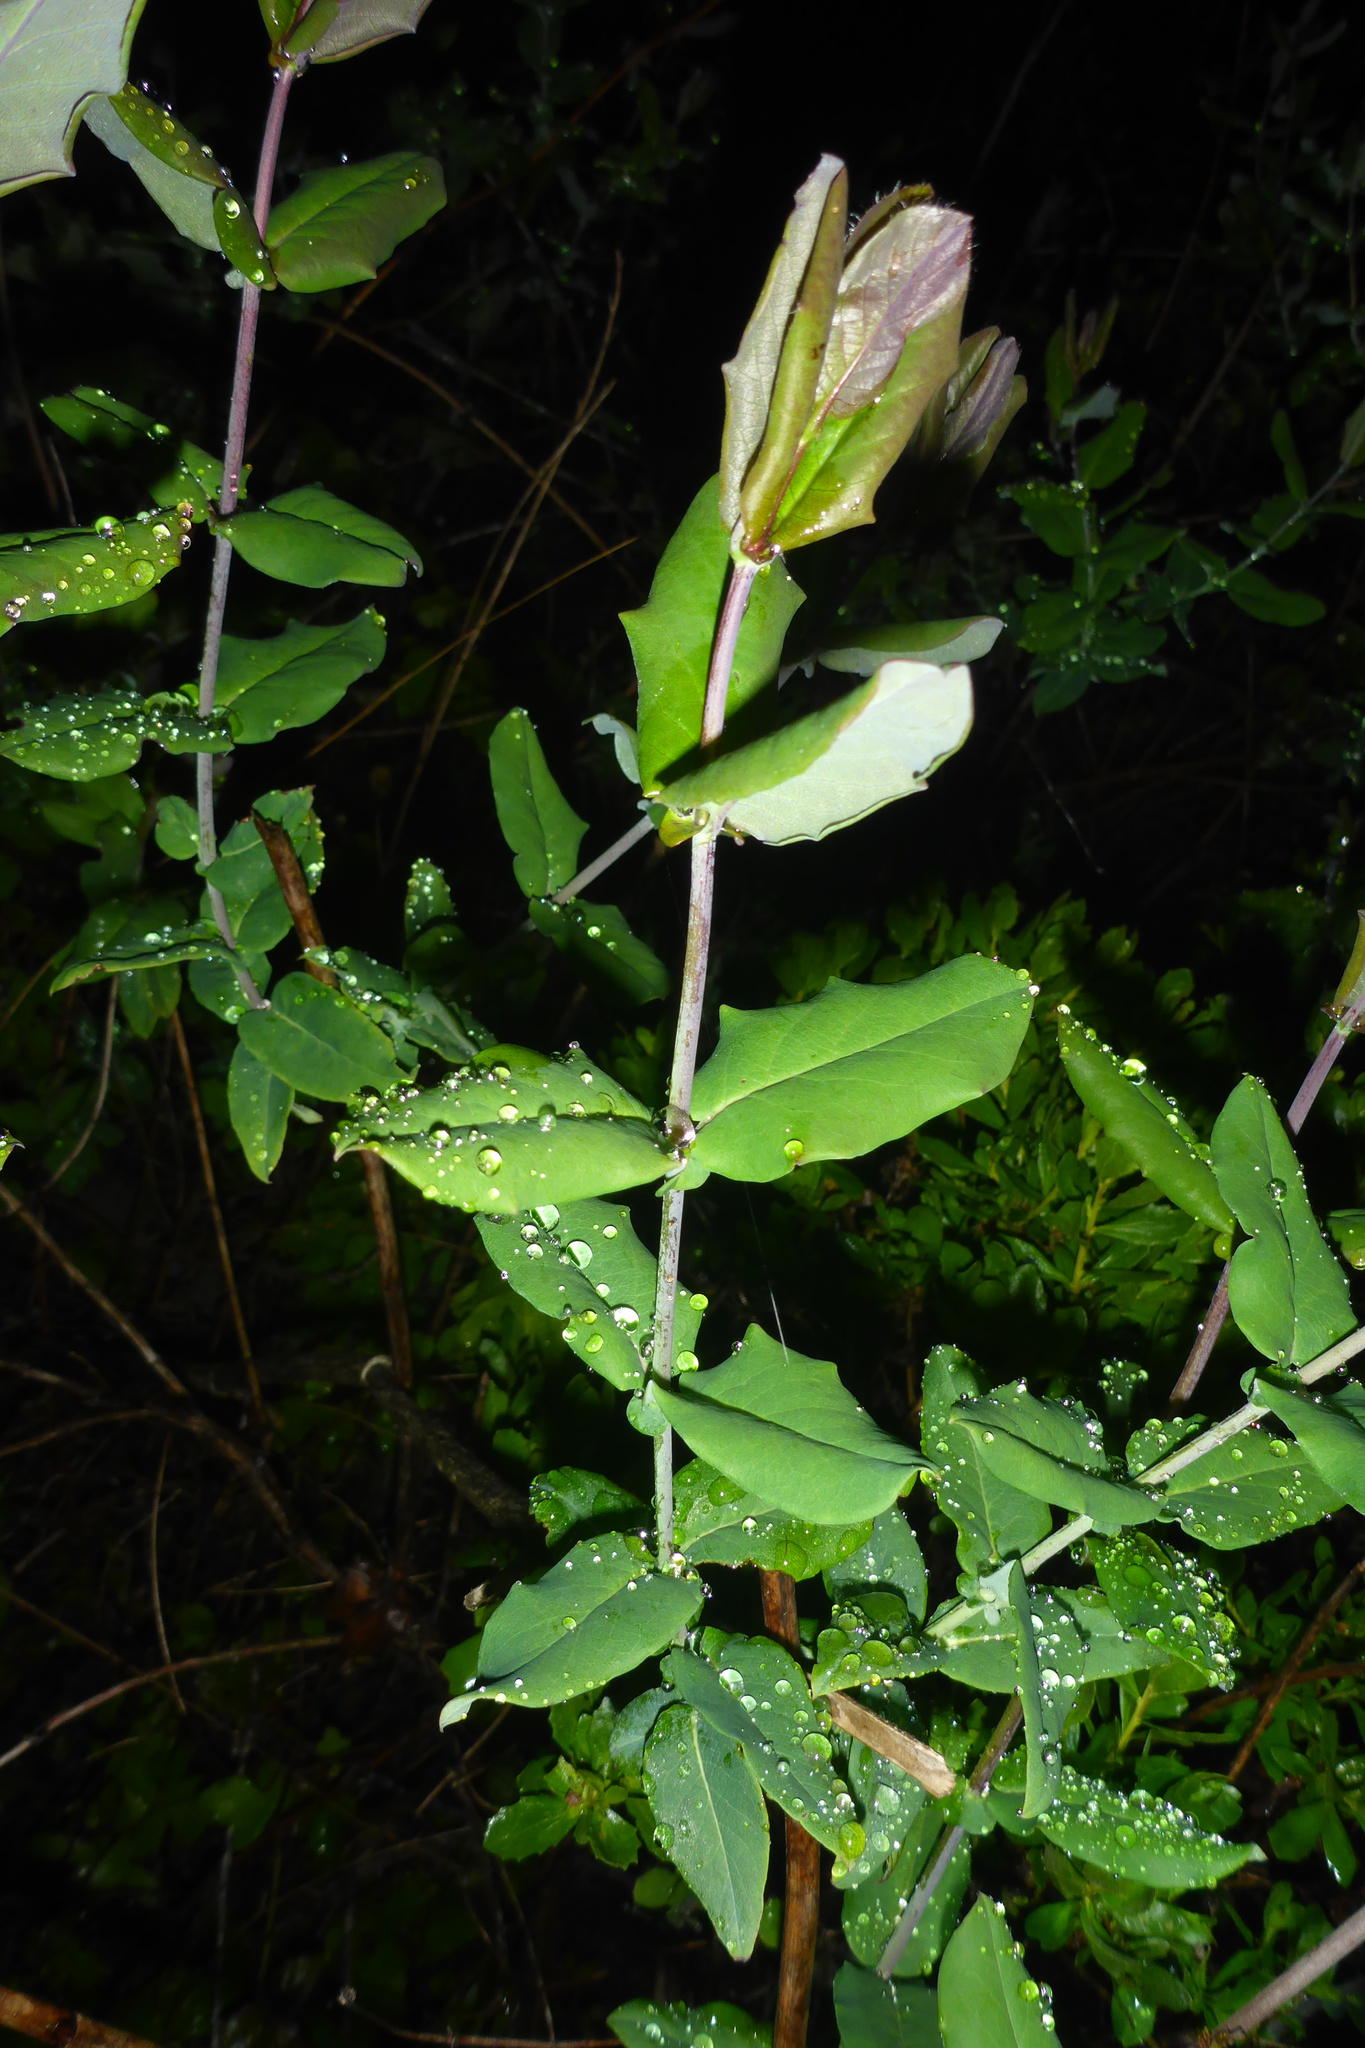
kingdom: Plantae
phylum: Tracheophyta
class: Magnoliopsida
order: Dipsacales
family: Caprifoliaceae
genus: Lonicera
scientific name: Lonicera hispidula
